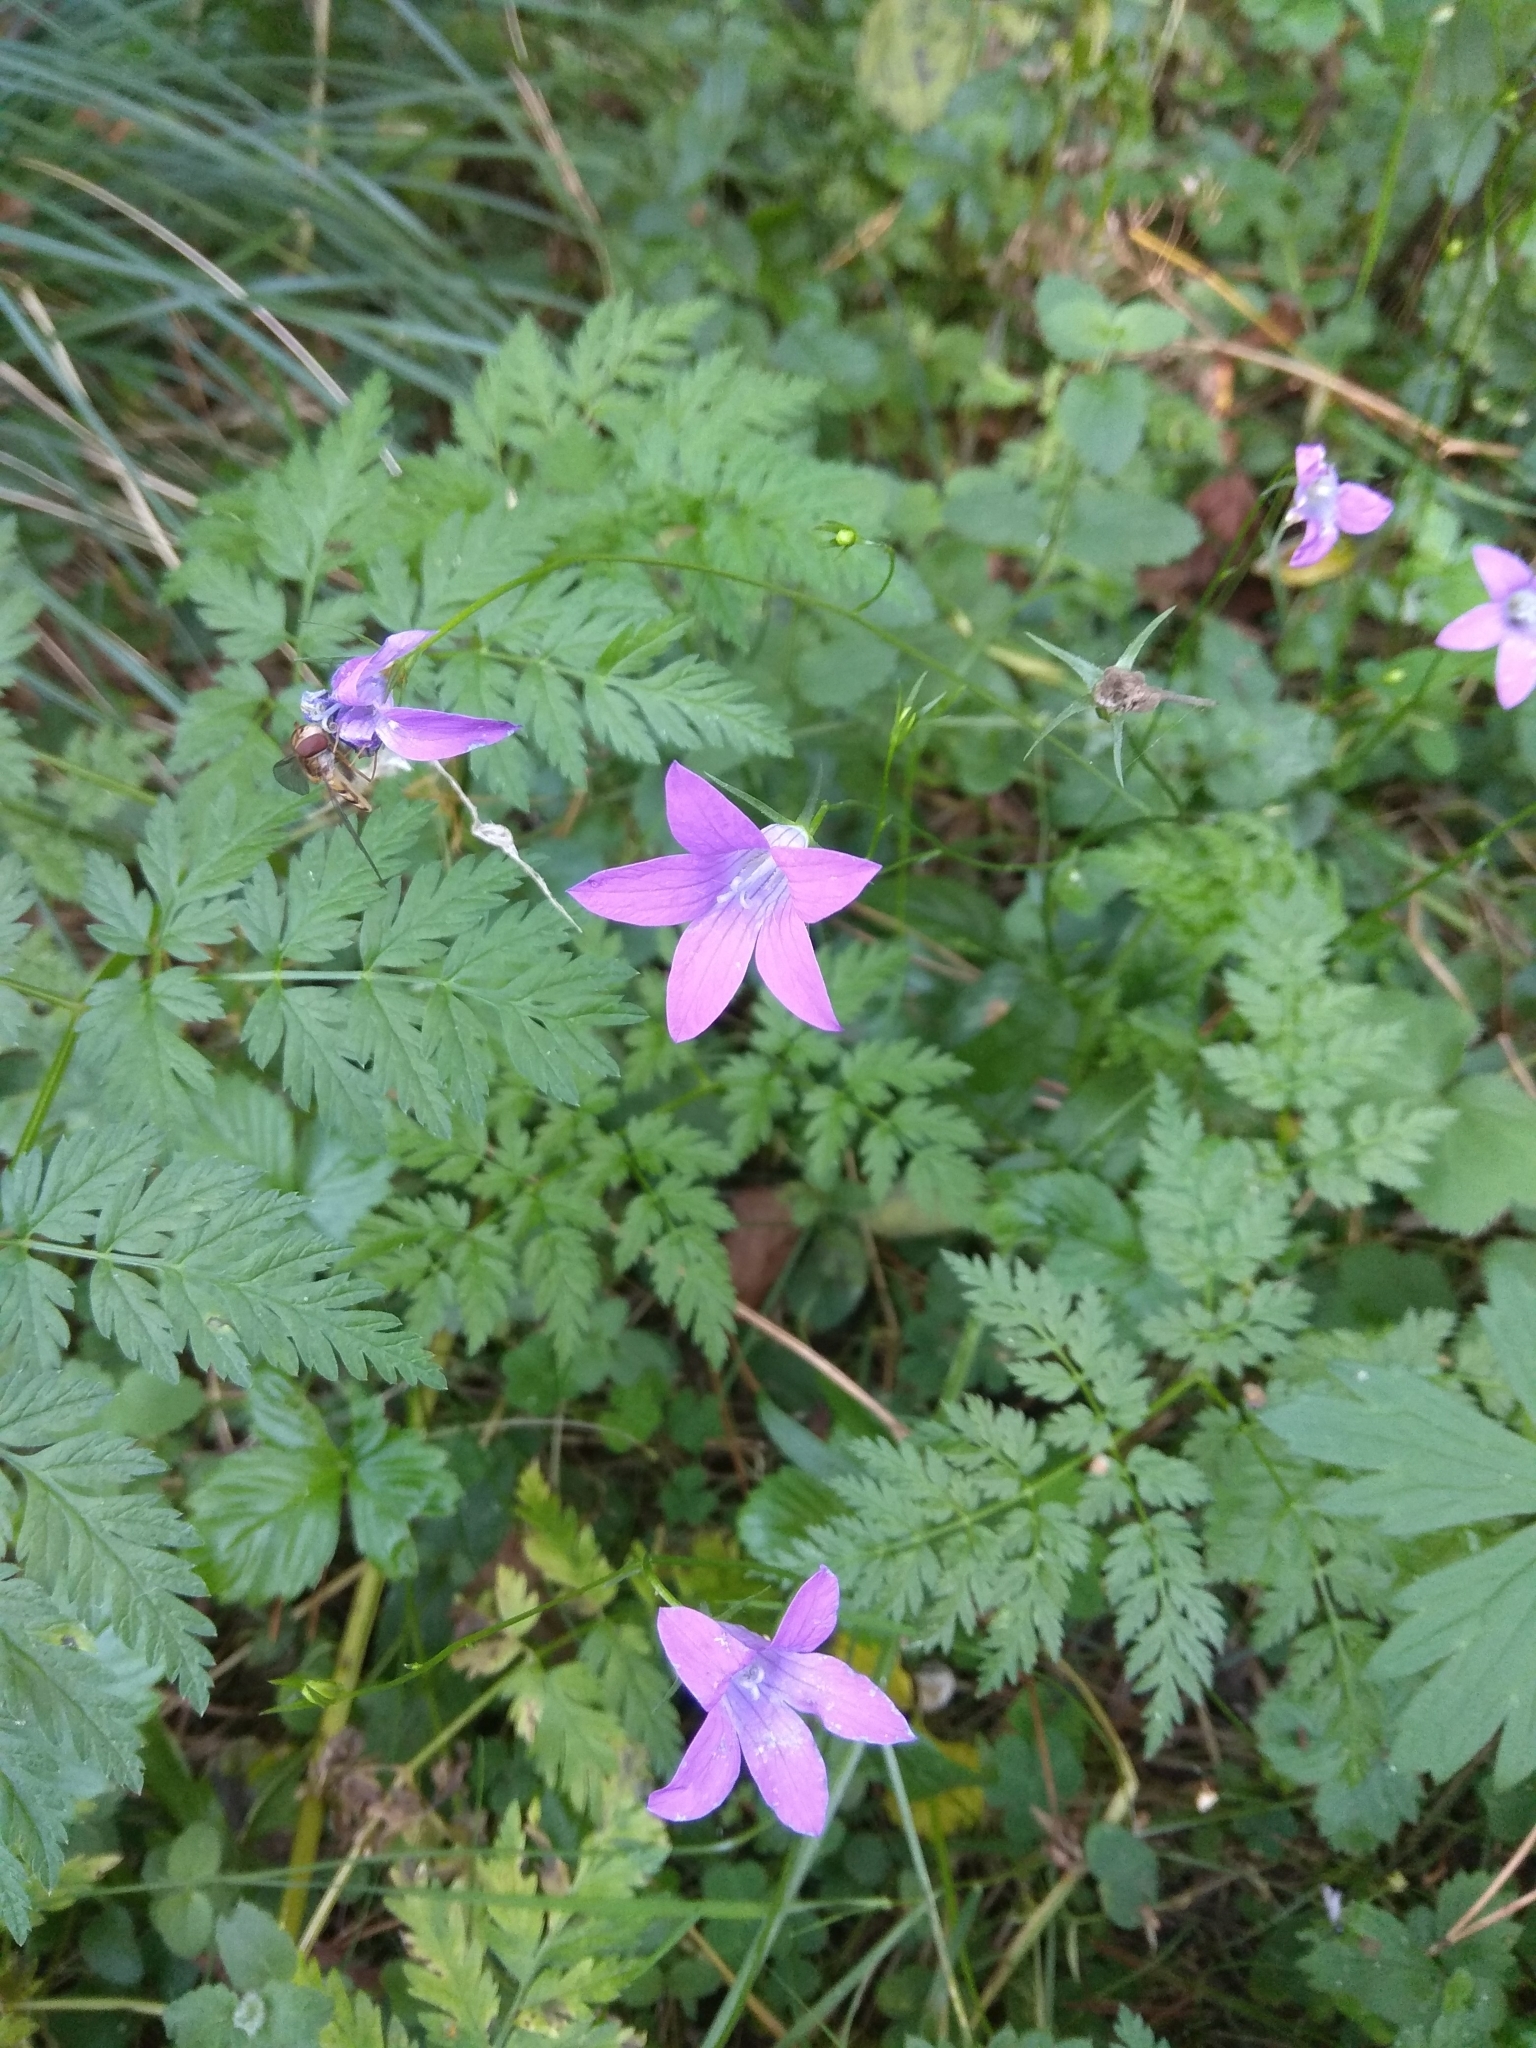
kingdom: Plantae
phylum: Tracheophyta
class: Magnoliopsida
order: Asterales
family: Campanulaceae
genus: Campanula
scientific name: Campanula patula
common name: Spreading bellflower
